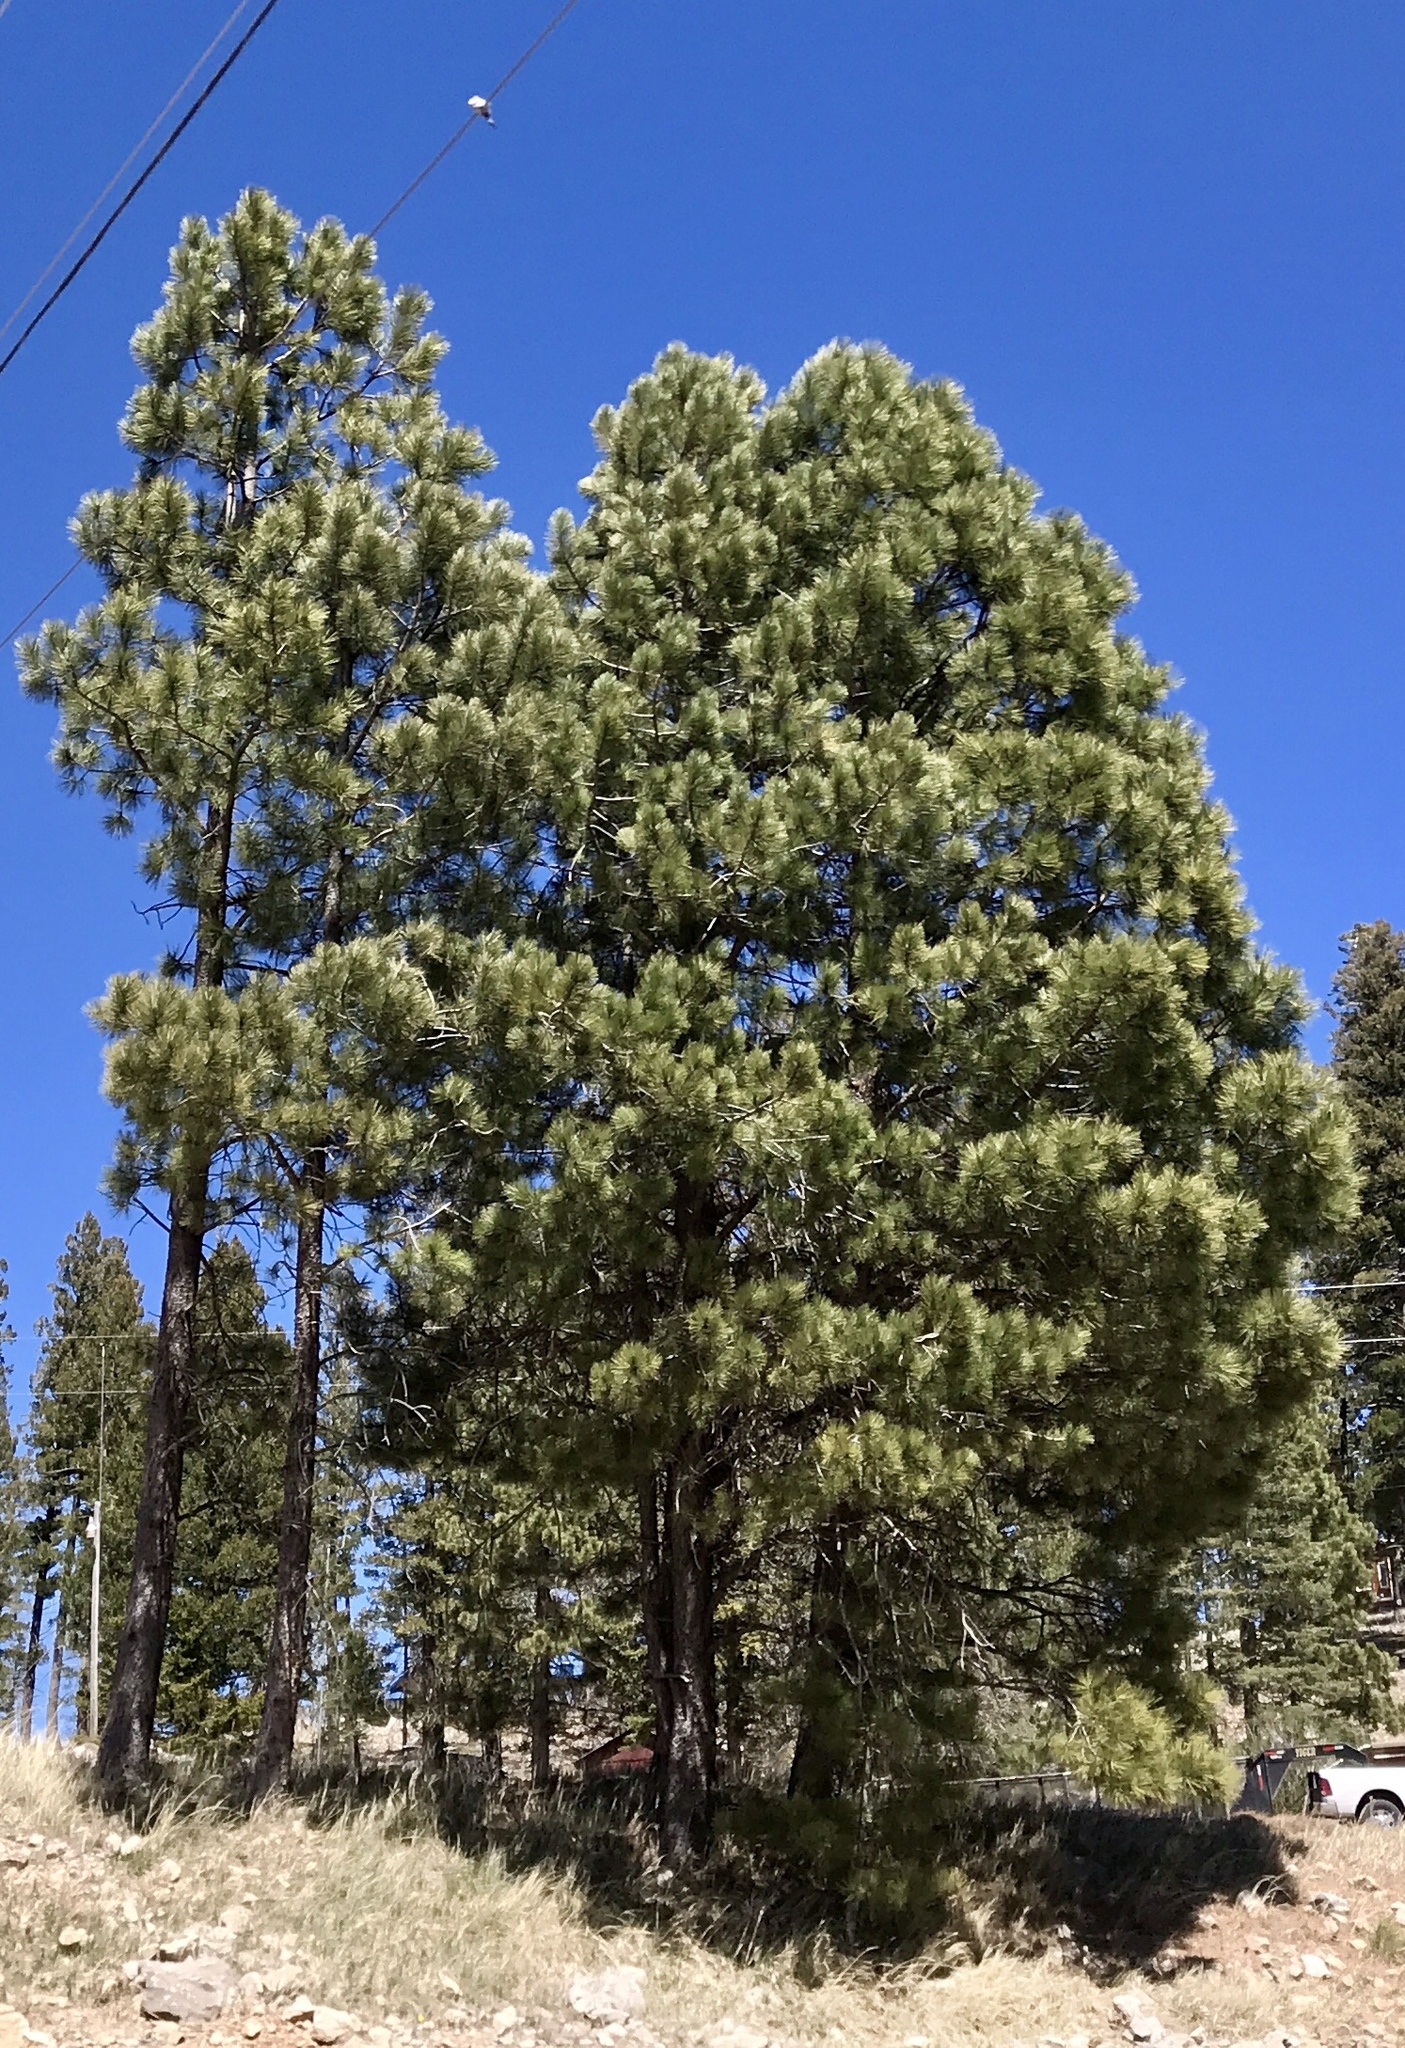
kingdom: Plantae
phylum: Tracheophyta
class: Pinopsida
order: Pinales
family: Pinaceae
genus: Pinus
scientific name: Pinus ponderosa
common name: Western yellow-pine
